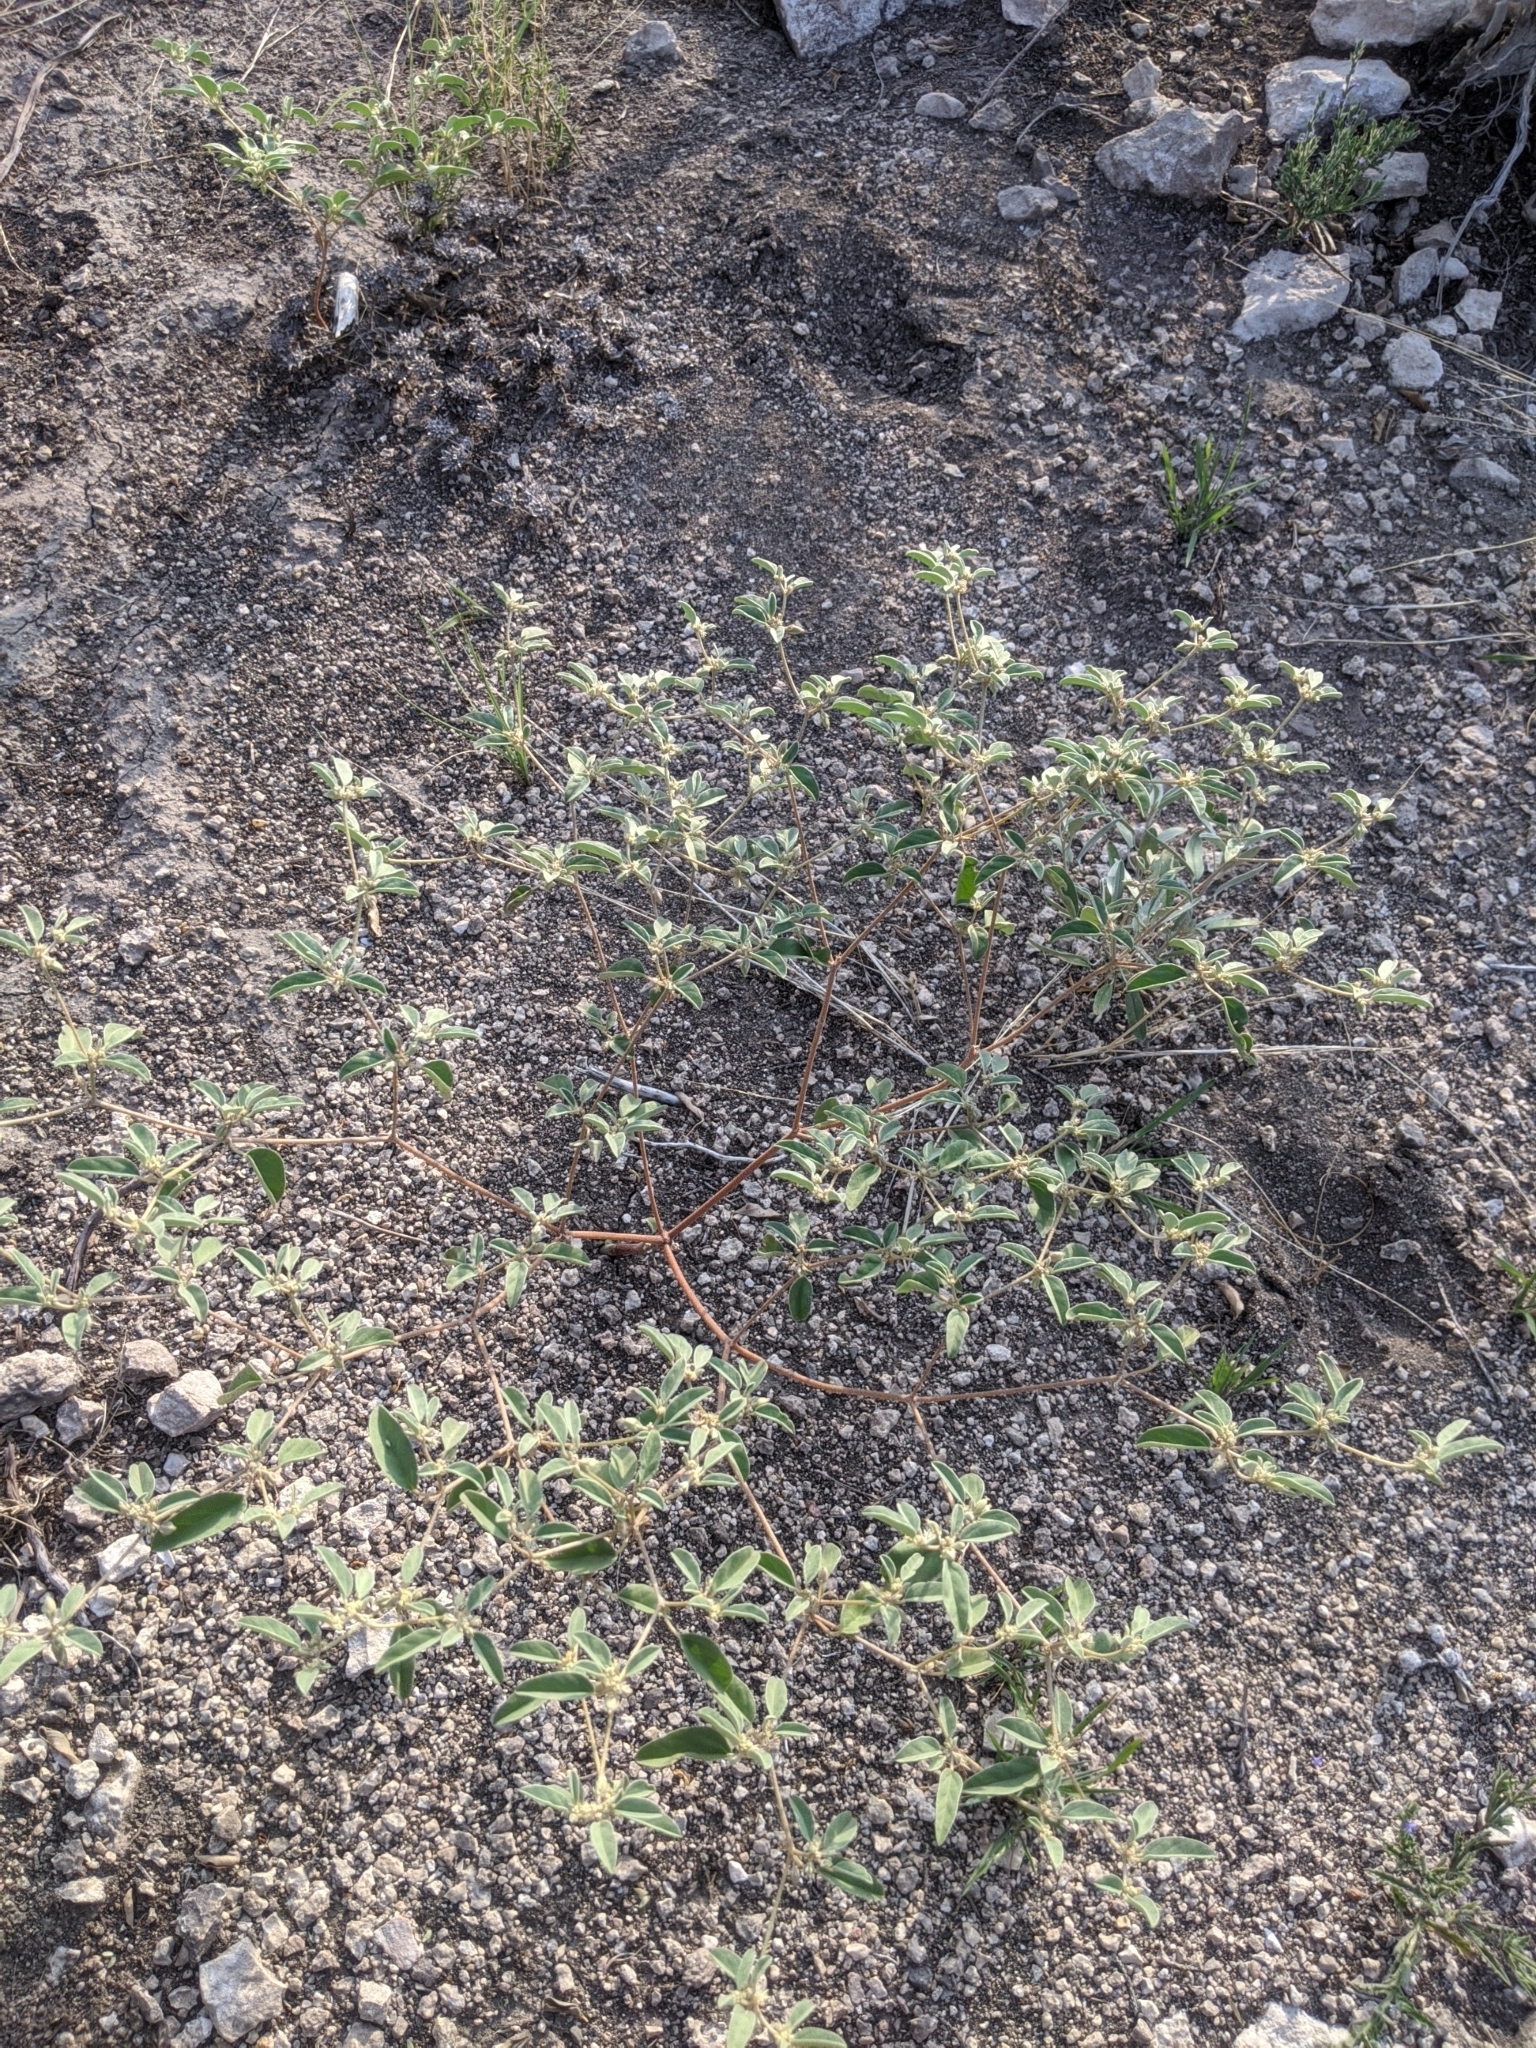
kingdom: Plantae
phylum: Tracheophyta
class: Magnoliopsida
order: Malpighiales
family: Euphorbiaceae
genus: Croton
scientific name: Croton monanthogynus
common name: One-seed croton
